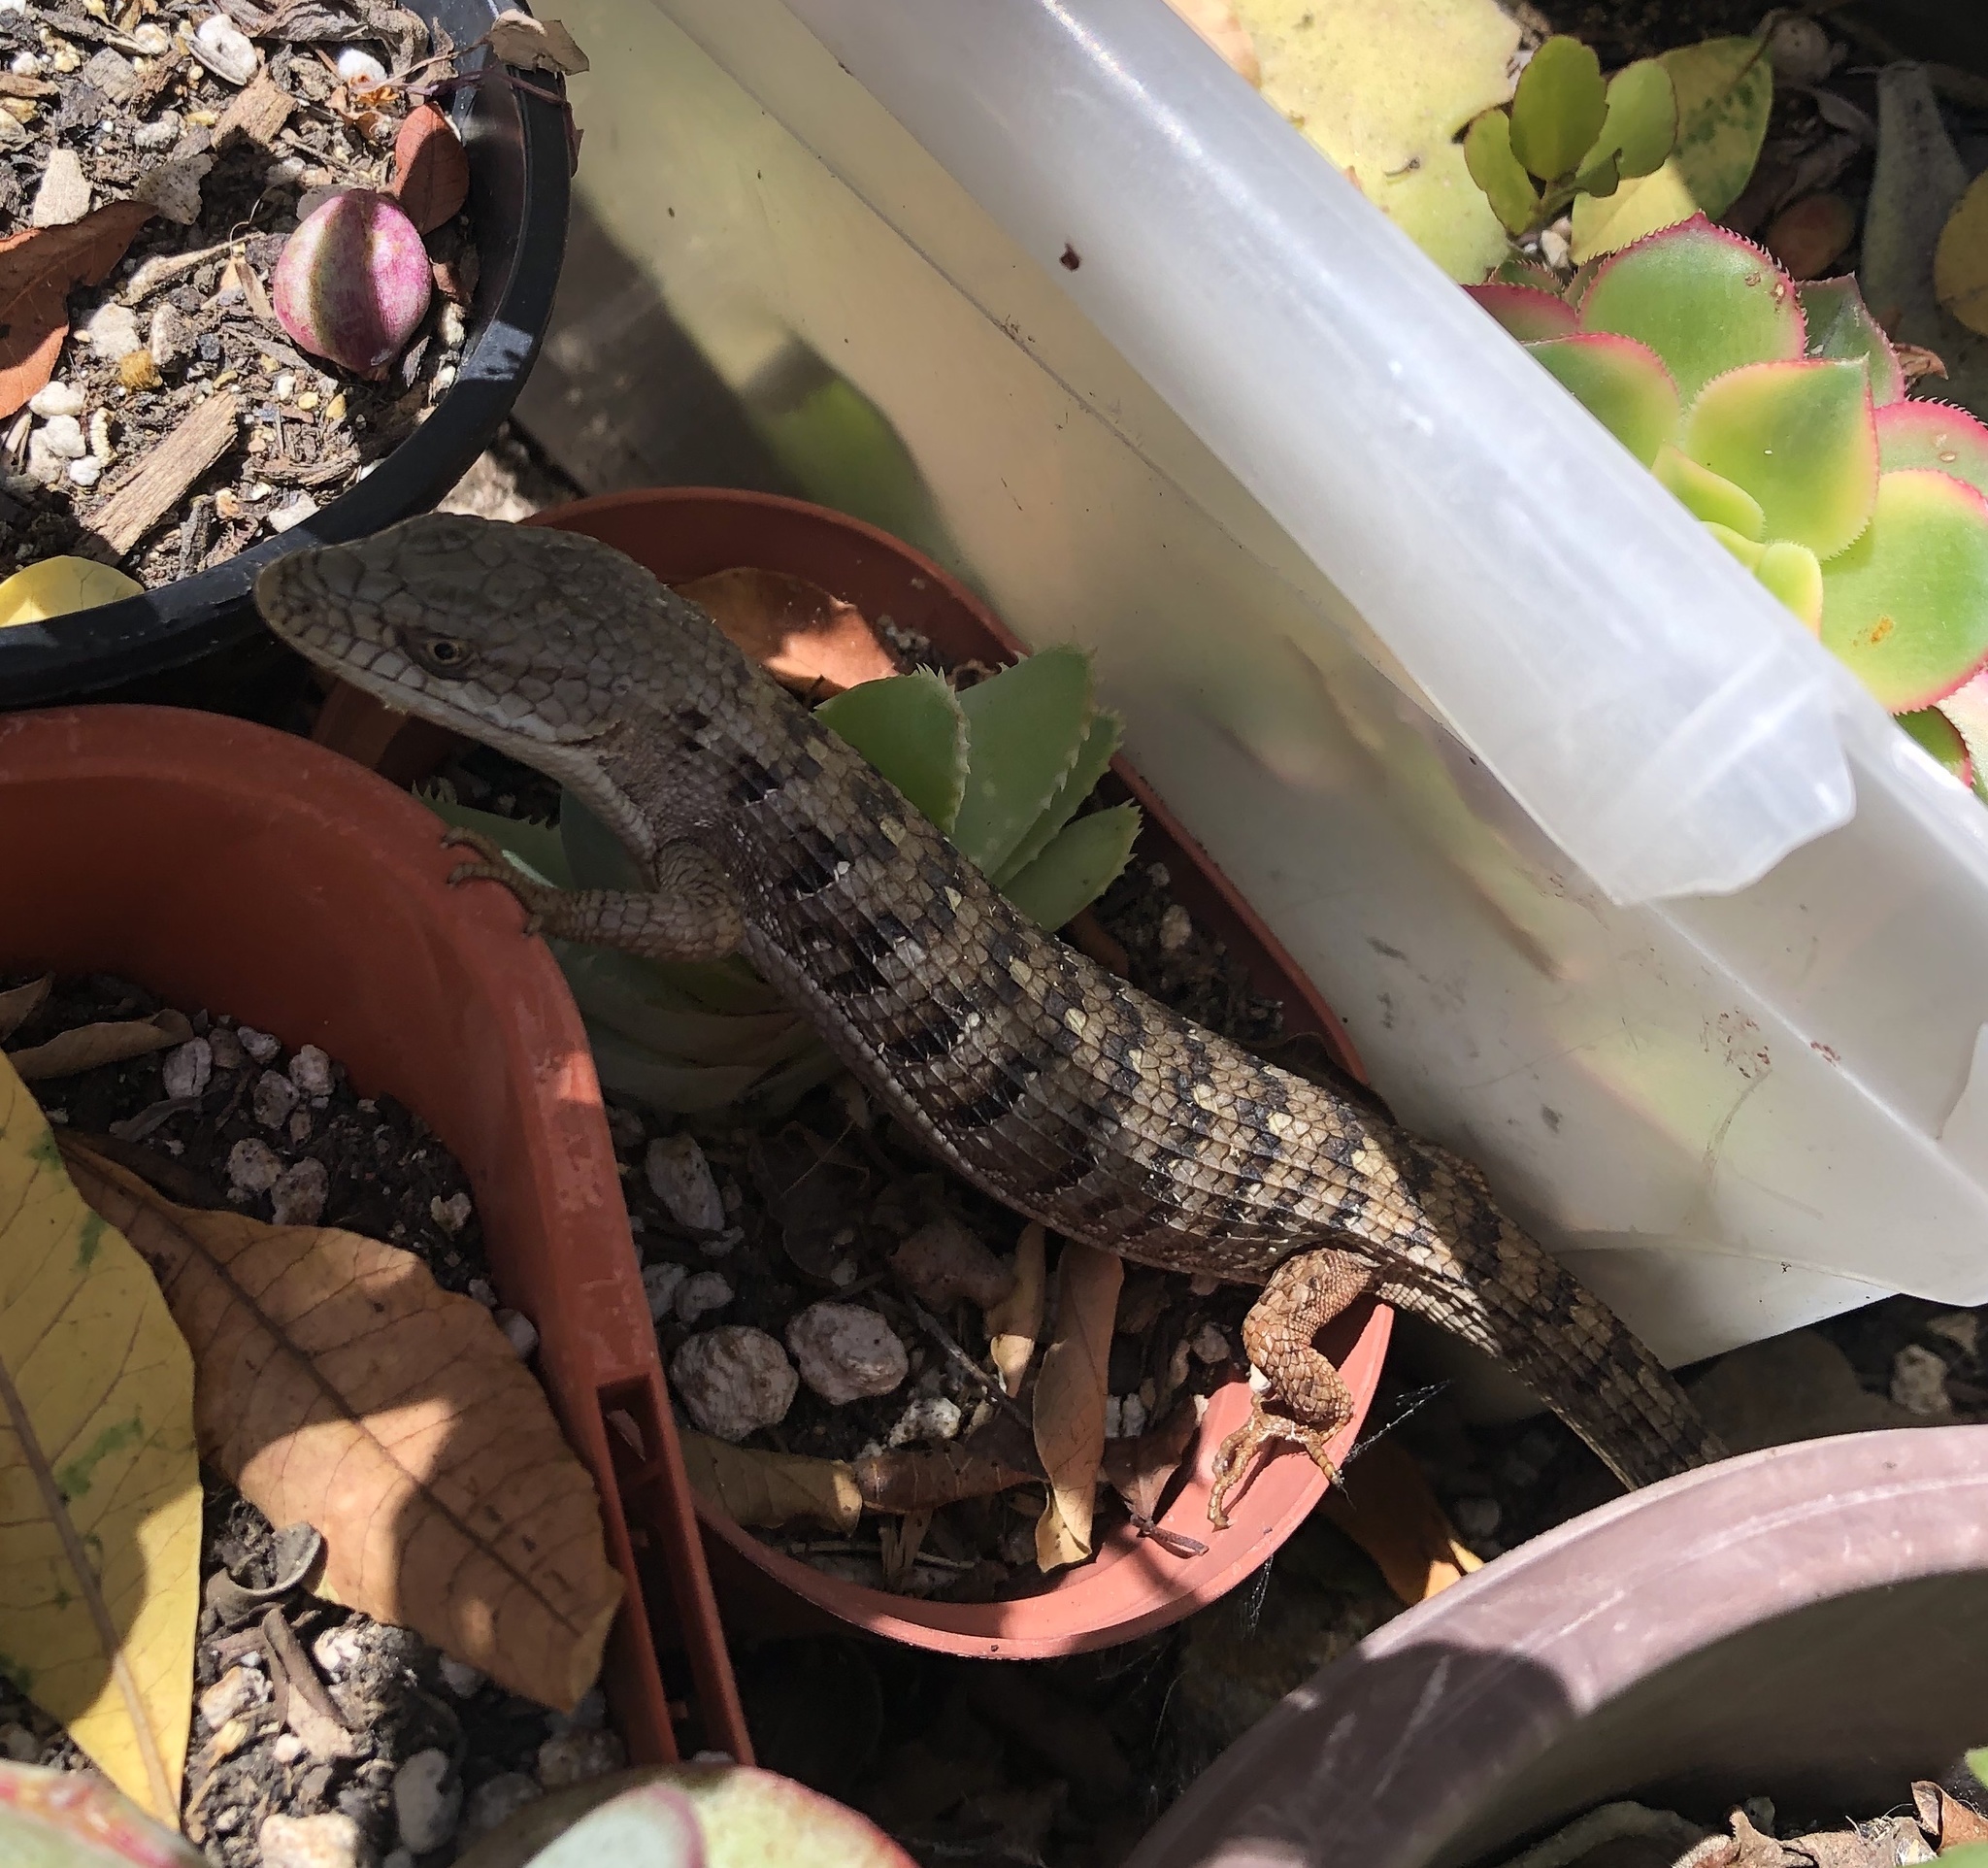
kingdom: Animalia
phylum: Chordata
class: Squamata
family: Anguidae
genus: Elgaria
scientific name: Elgaria multicarinata
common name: Southern alligator lizard
